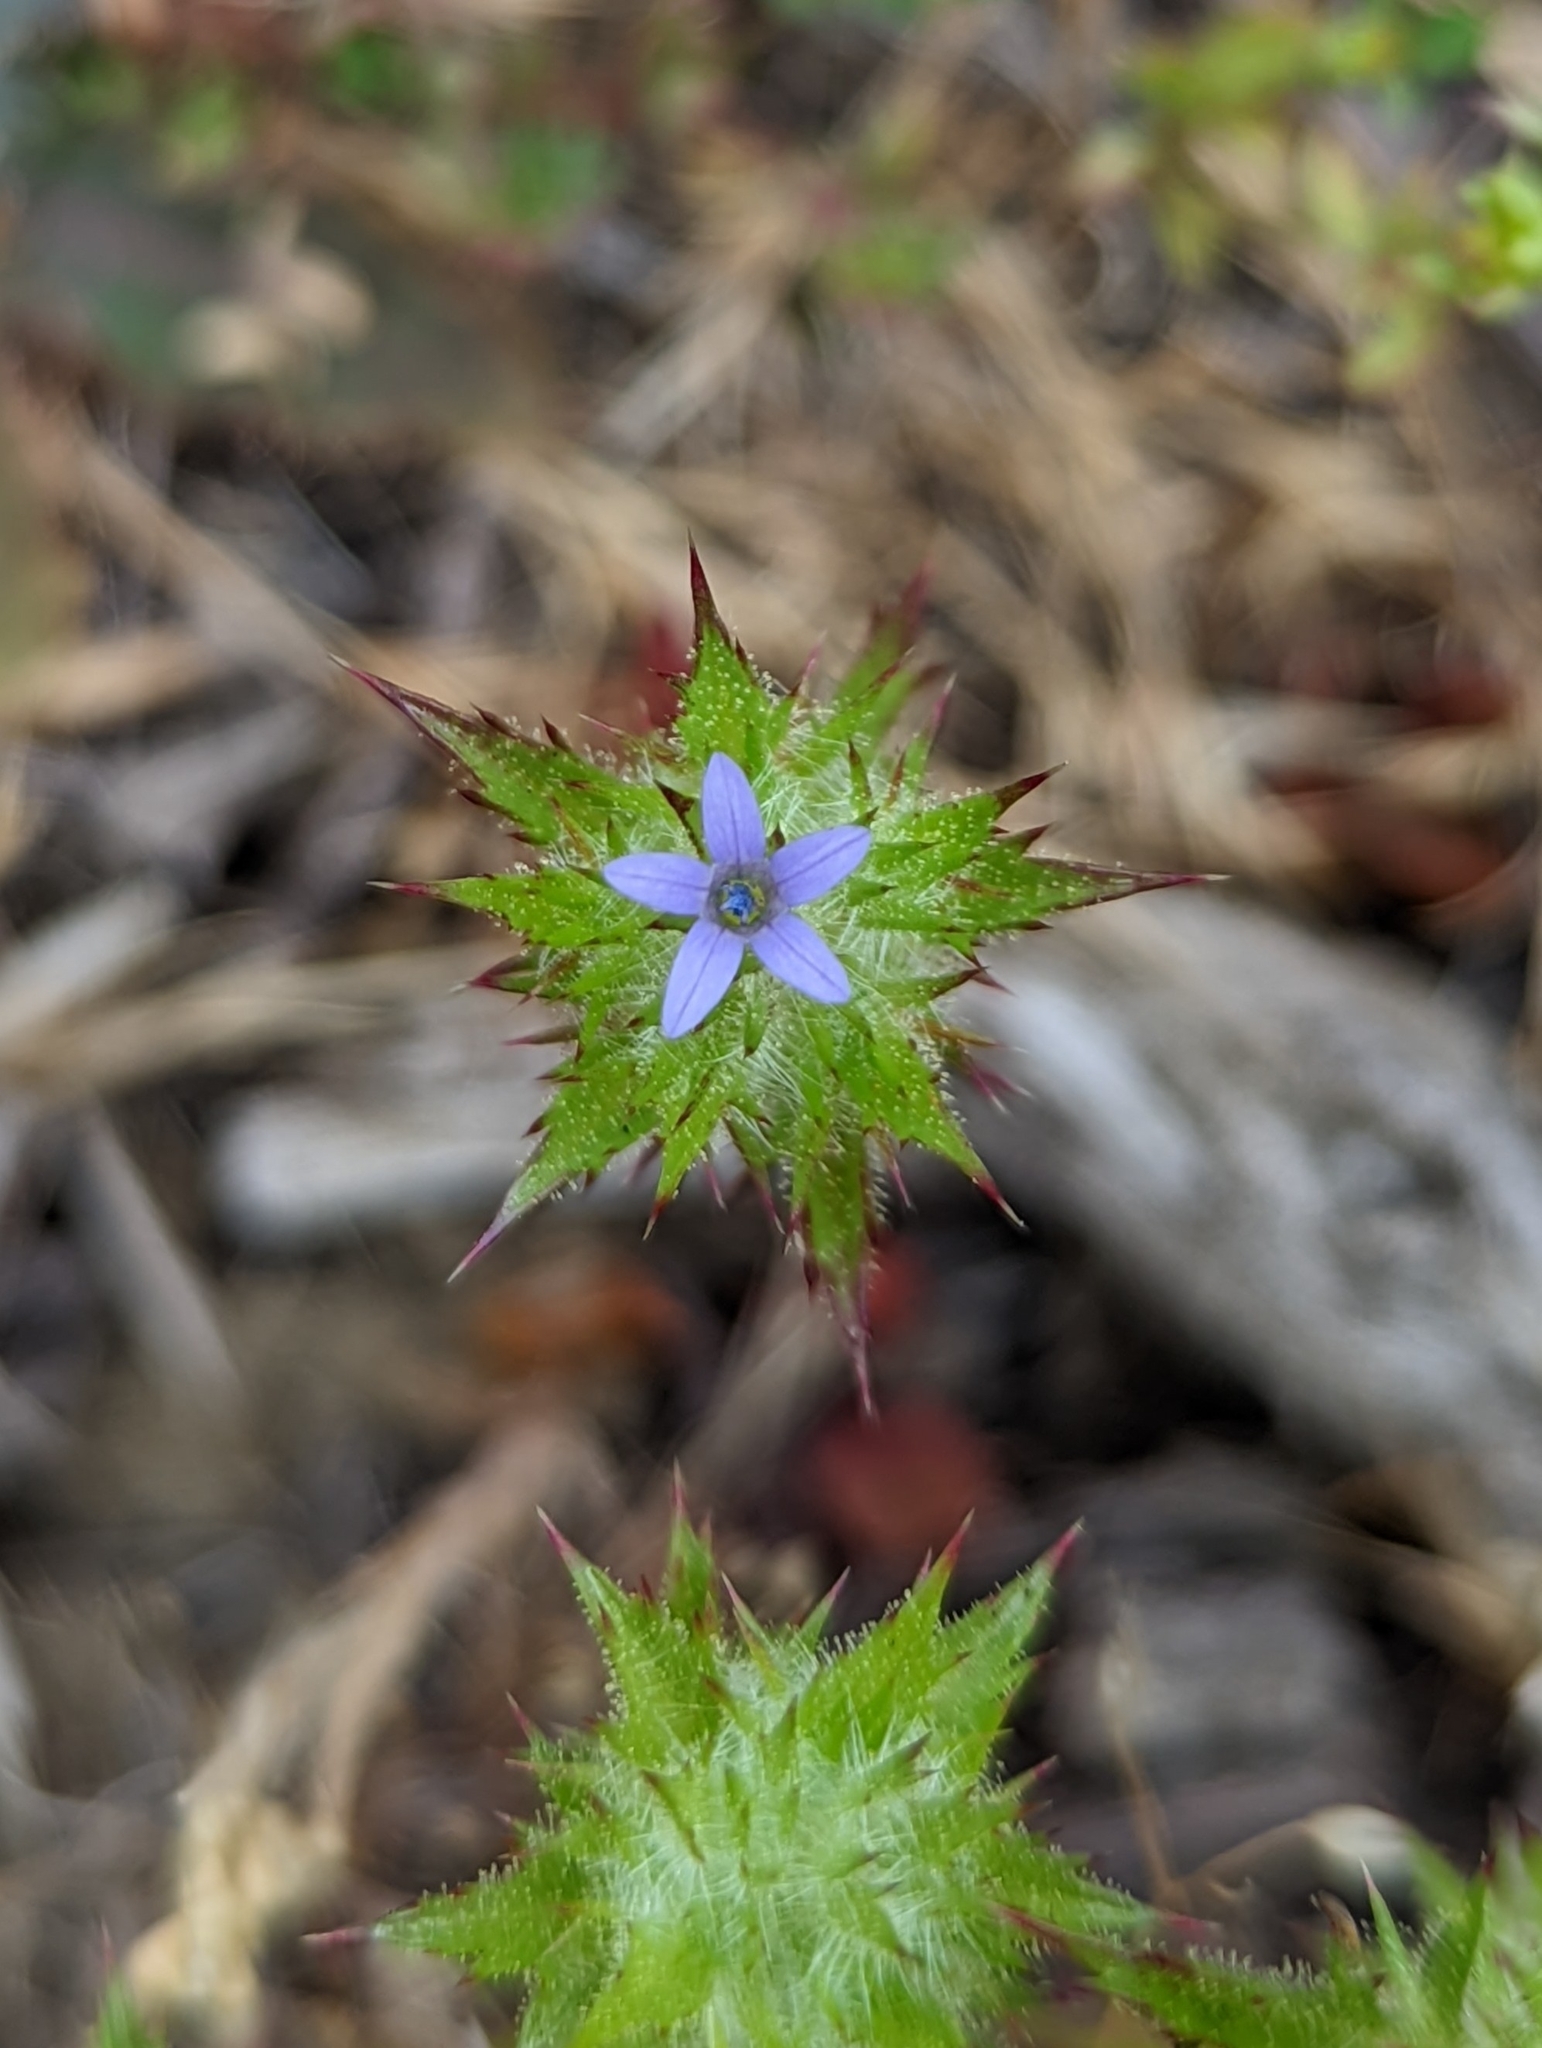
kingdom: Plantae
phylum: Tracheophyta
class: Magnoliopsida
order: Ericales
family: Polemoniaceae
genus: Navarretia
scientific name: Navarretia squarrosa
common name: Skunkweed
